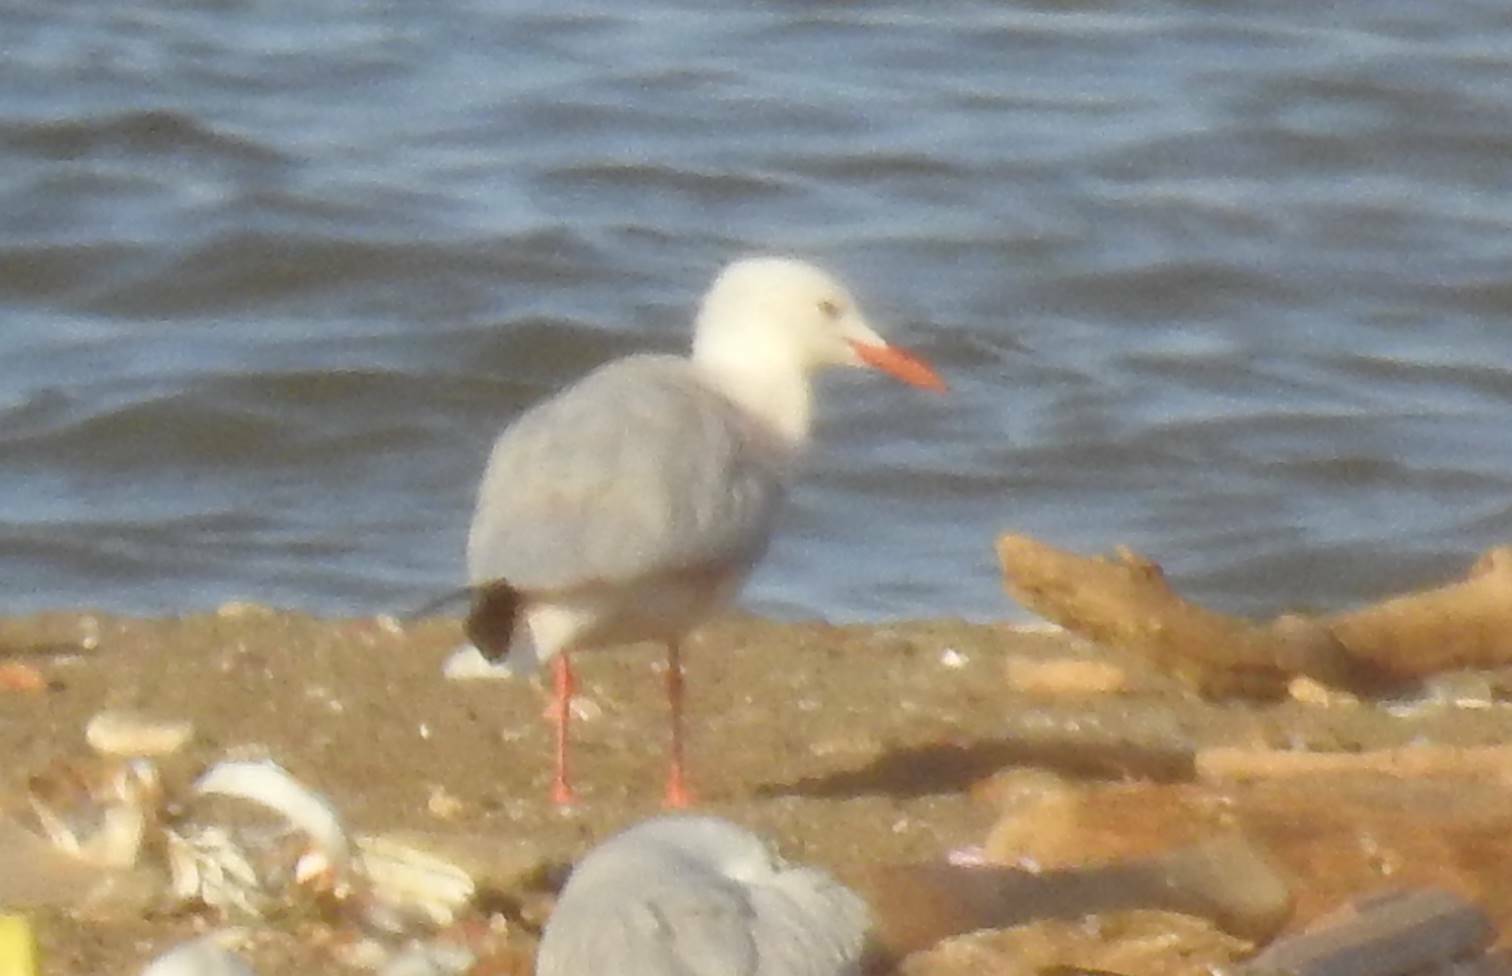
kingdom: Animalia
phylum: Chordata
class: Aves
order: Charadriiformes
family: Laridae
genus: Chroicocephalus
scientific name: Chroicocephalus genei
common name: Slender-billed gull
